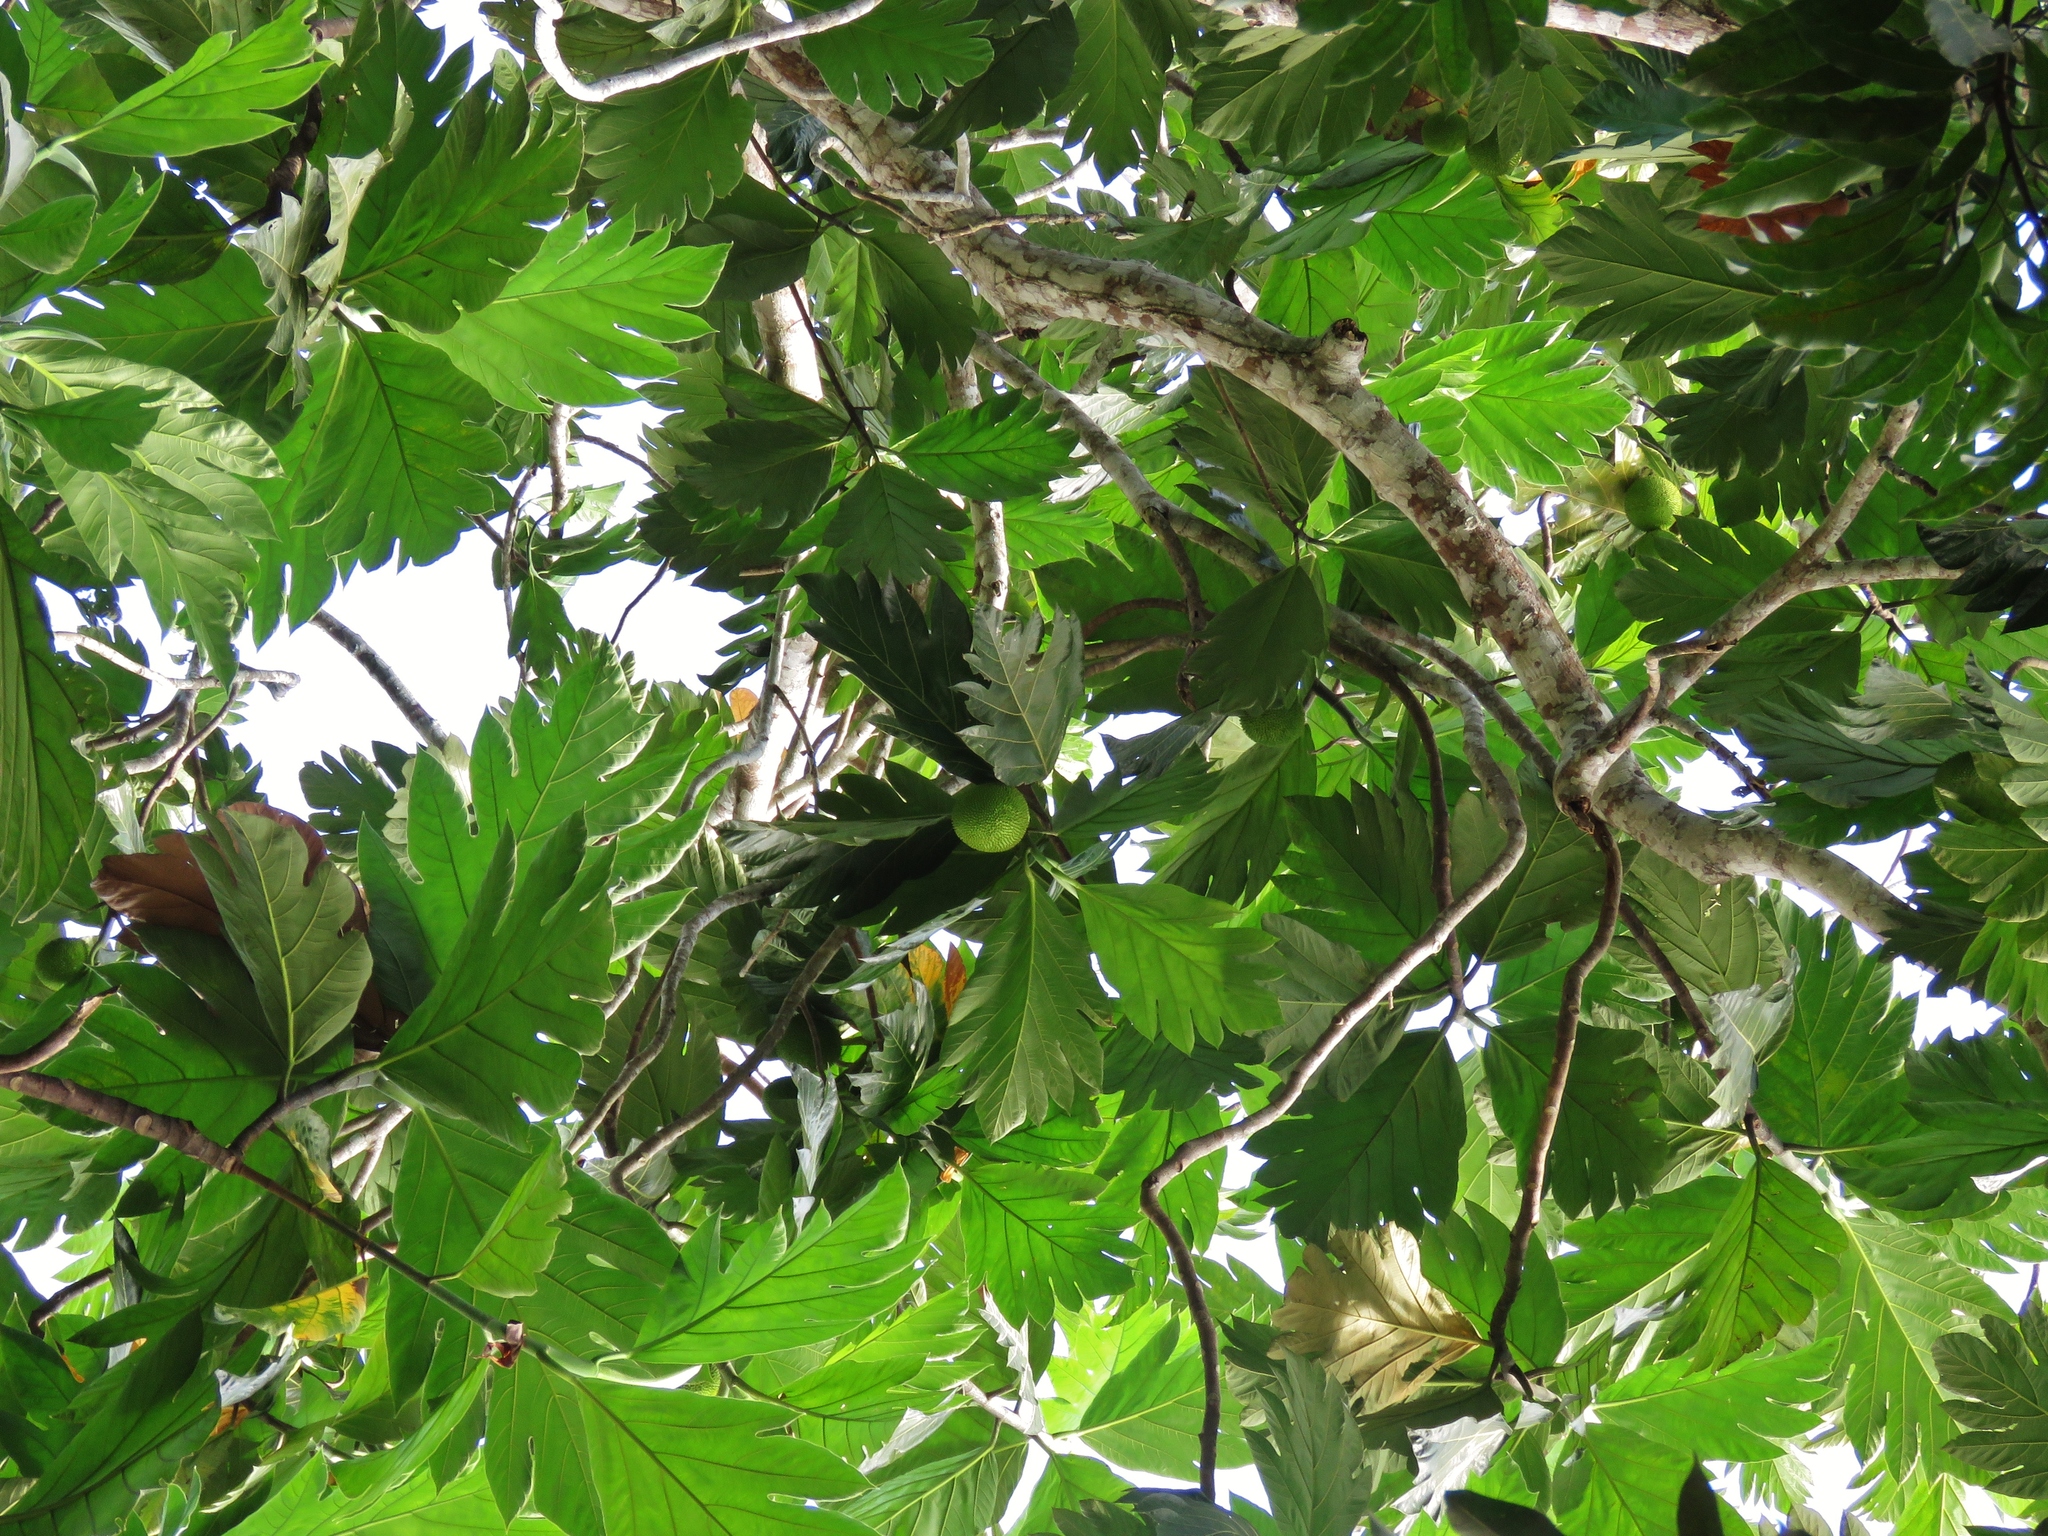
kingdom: Plantae
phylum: Tracheophyta
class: Magnoliopsida
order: Rosales
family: Moraceae
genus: Artocarpus
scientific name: Artocarpus altilis
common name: Breadfruit
